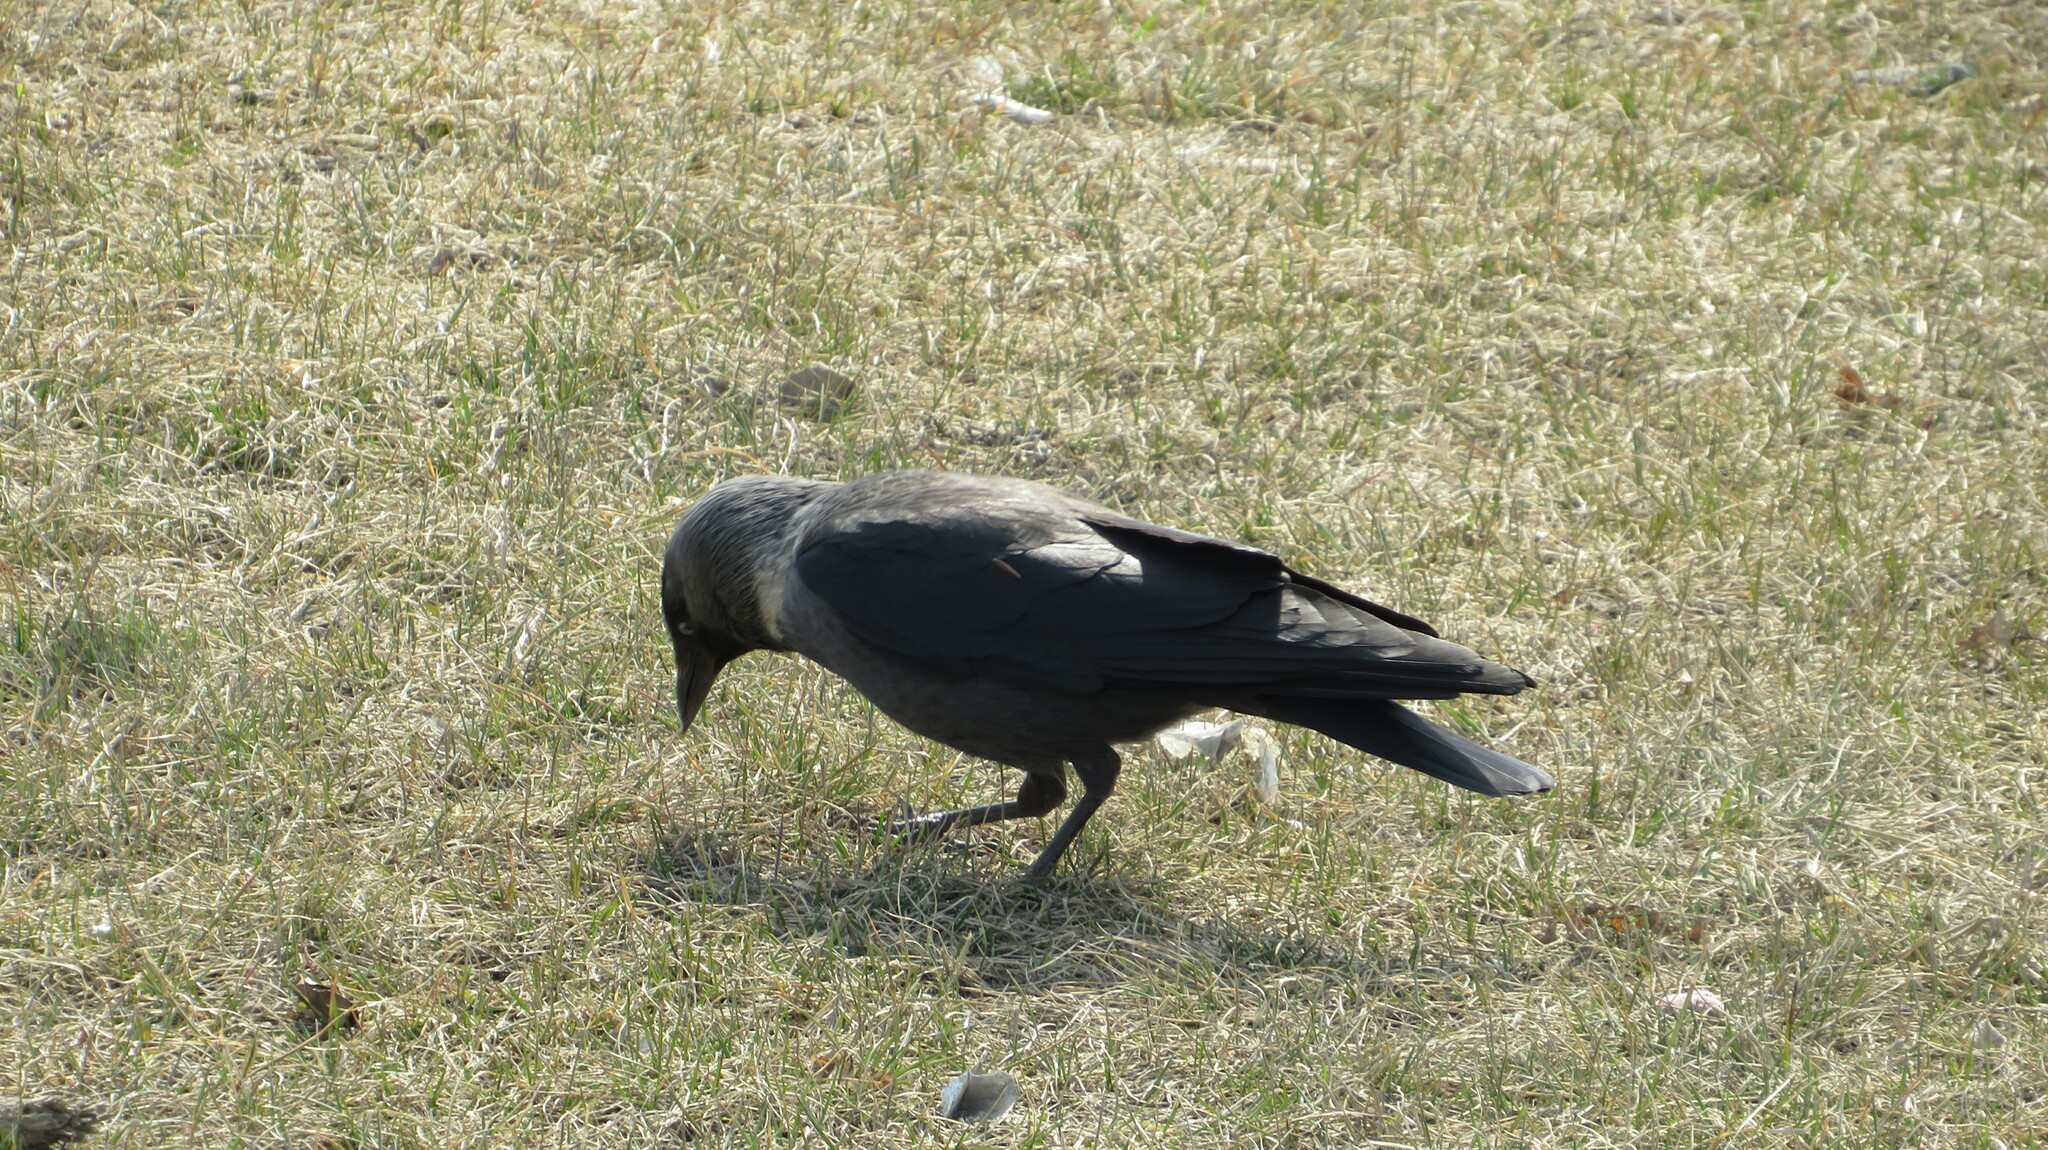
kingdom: Animalia
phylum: Chordata
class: Aves
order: Passeriformes
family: Corvidae
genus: Coloeus
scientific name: Coloeus monedula
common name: Western jackdaw
